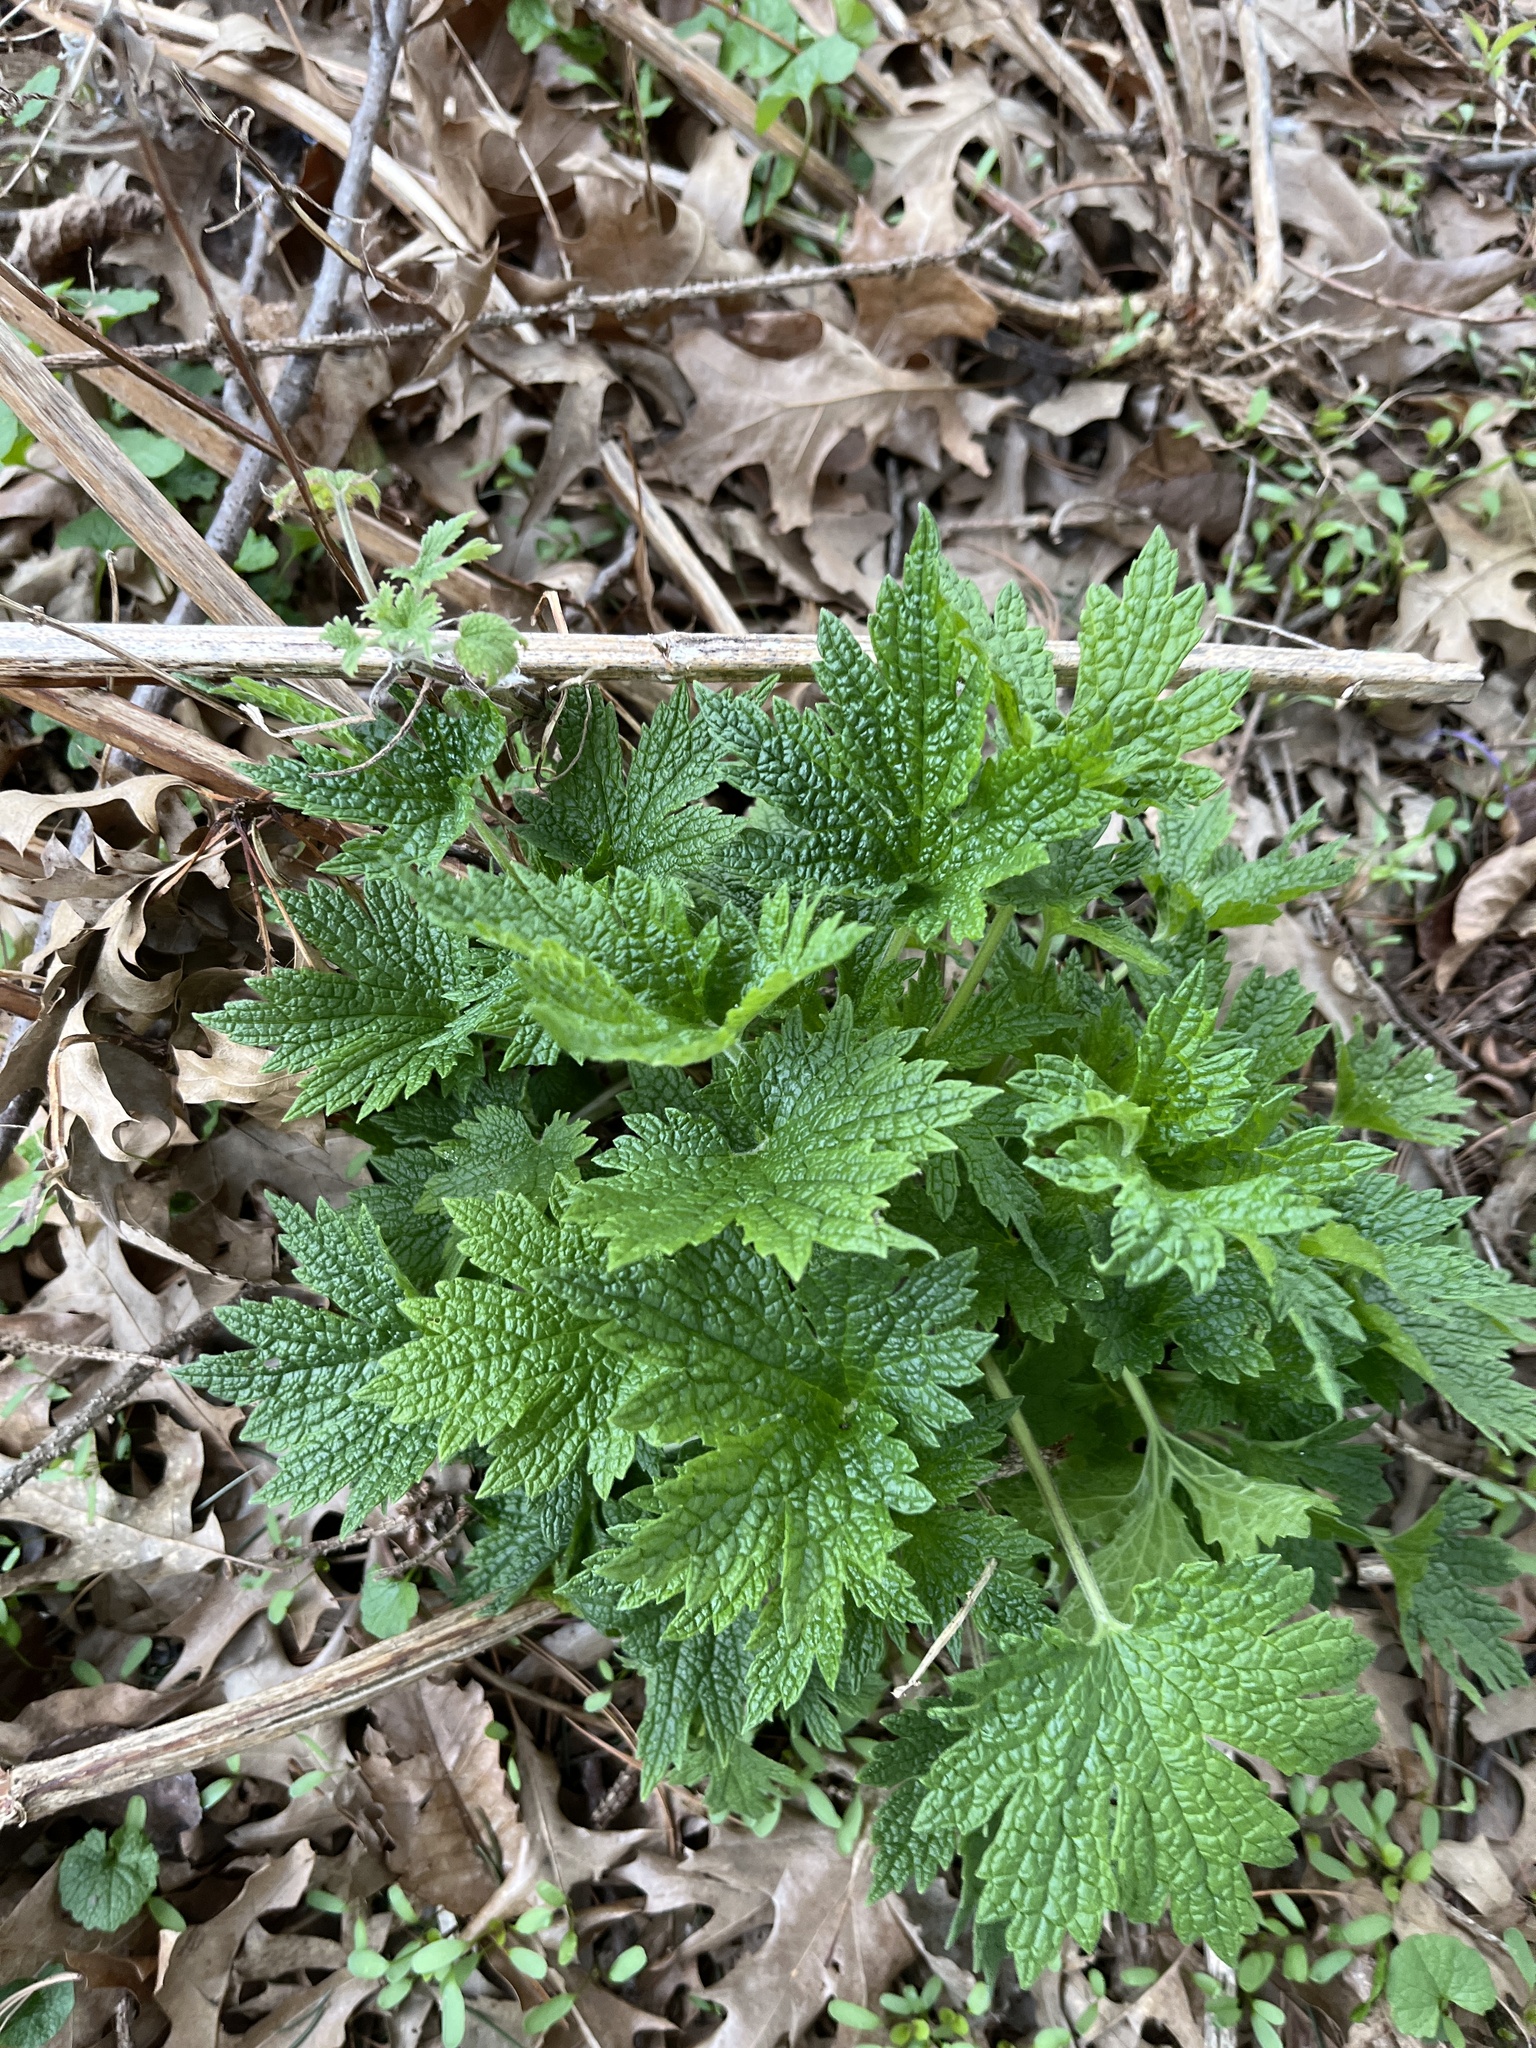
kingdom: Plantae
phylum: Tracheophyta
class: Magnoliopsida
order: Lamiales
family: Lamiaceae
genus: Leonurus
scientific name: Leonurus cardiaca
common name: Motherwort
